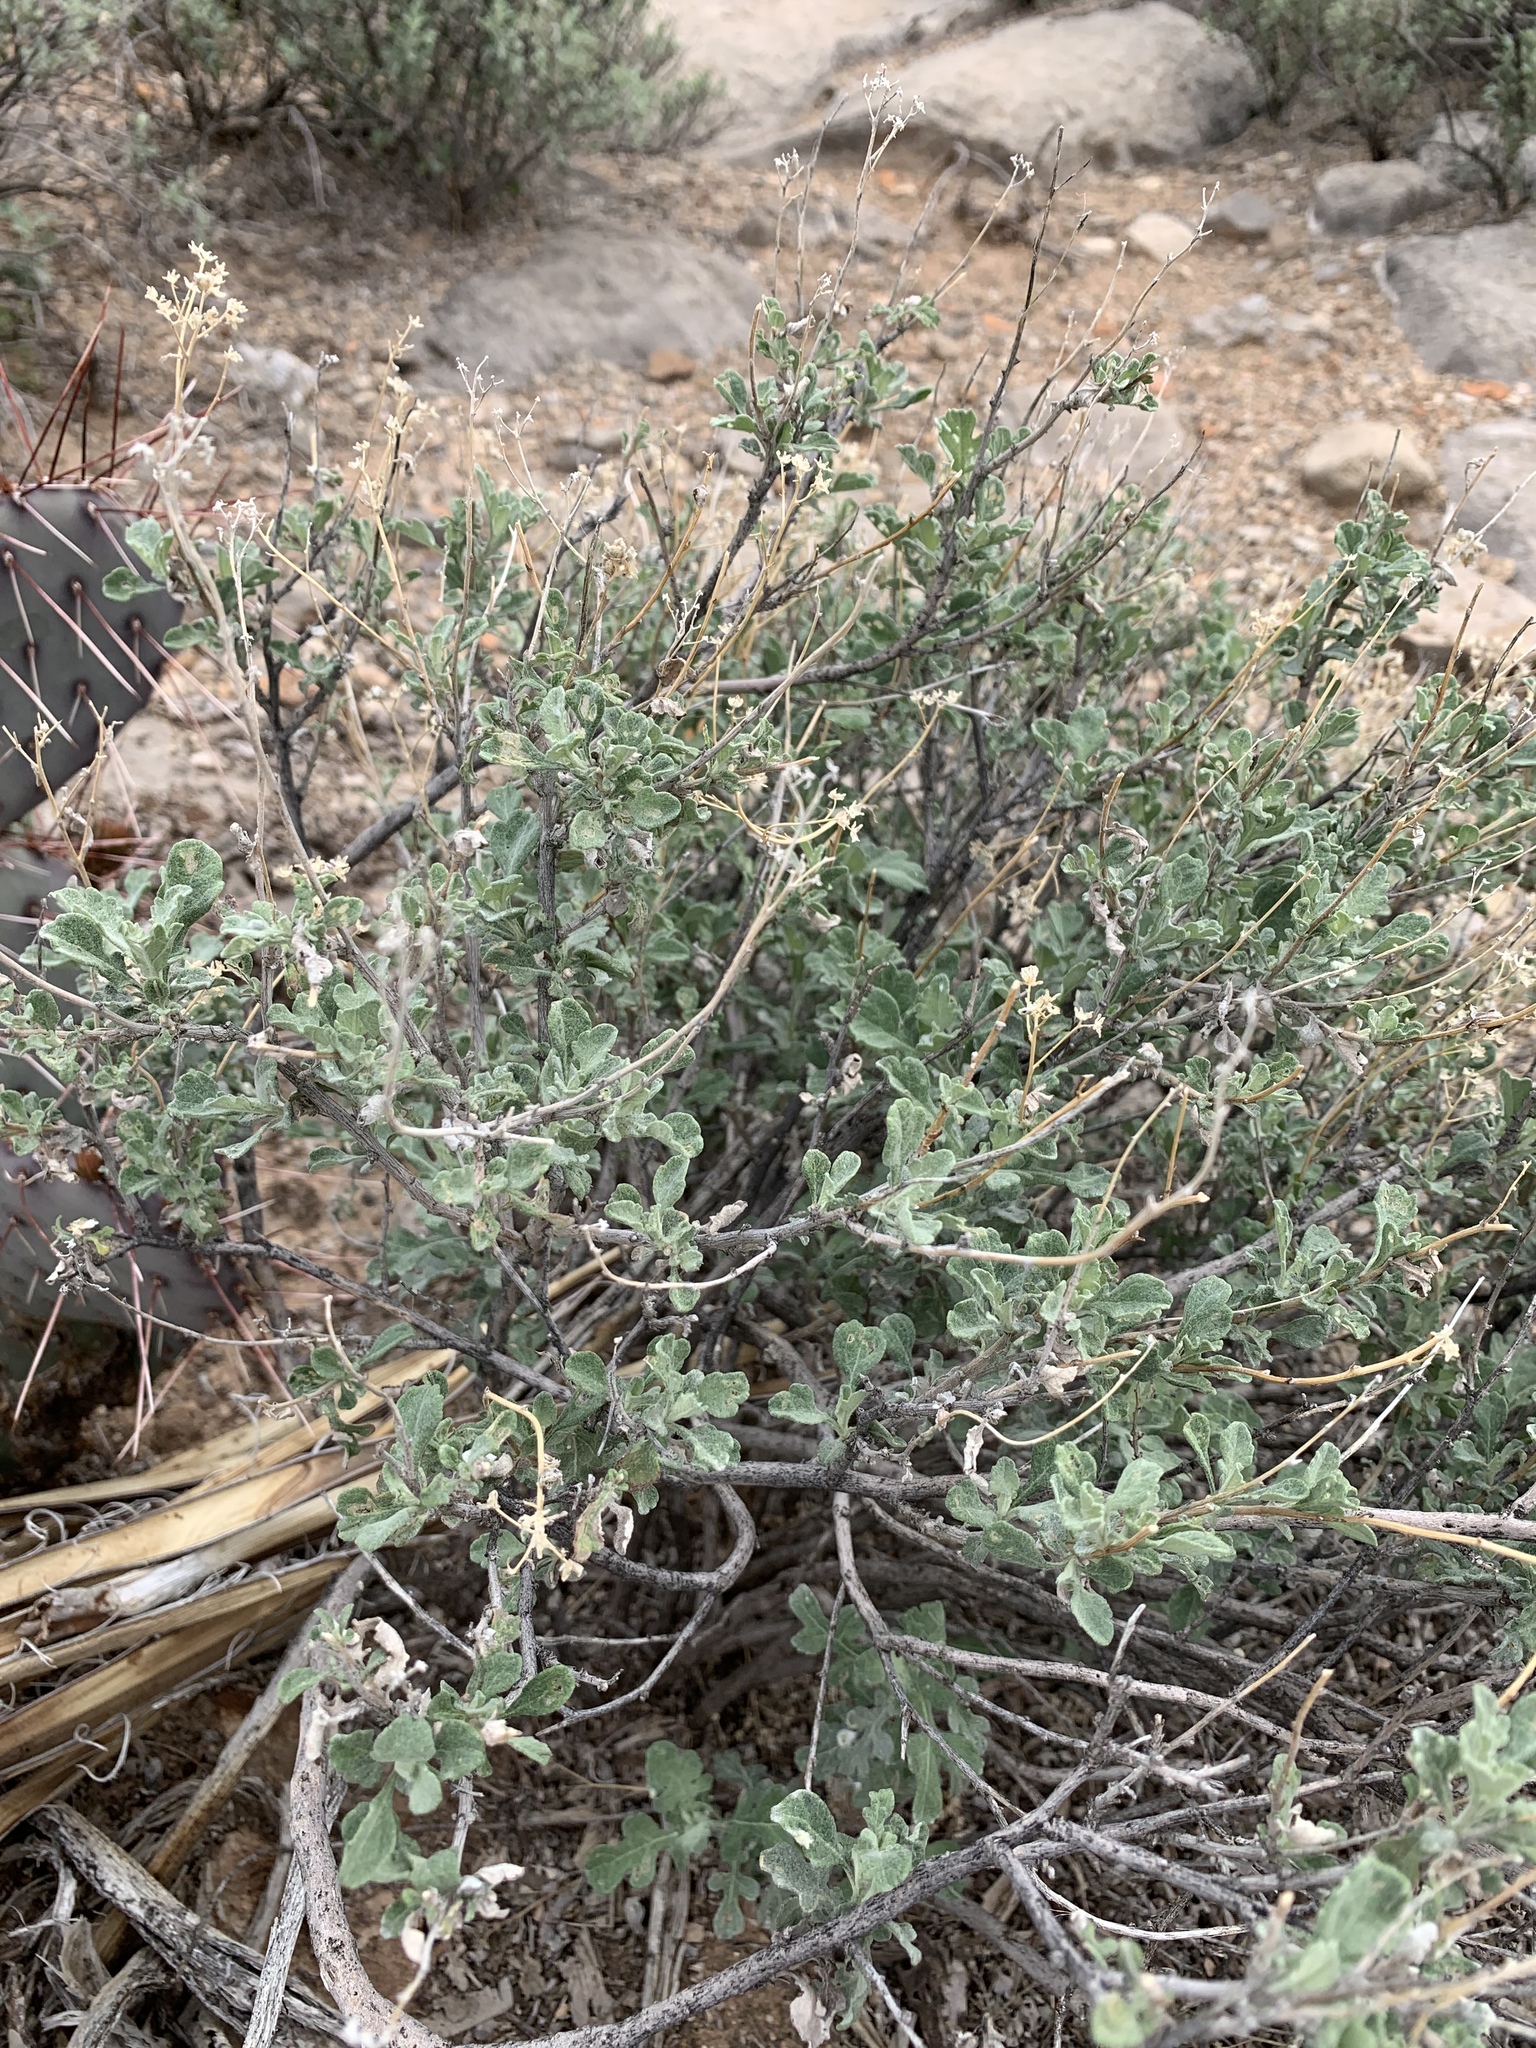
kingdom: Plantae
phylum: Tracheophyta
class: Magnoliopsida
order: Asterales
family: Asteraceae
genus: Parthenium
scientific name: Parthenium incanum
